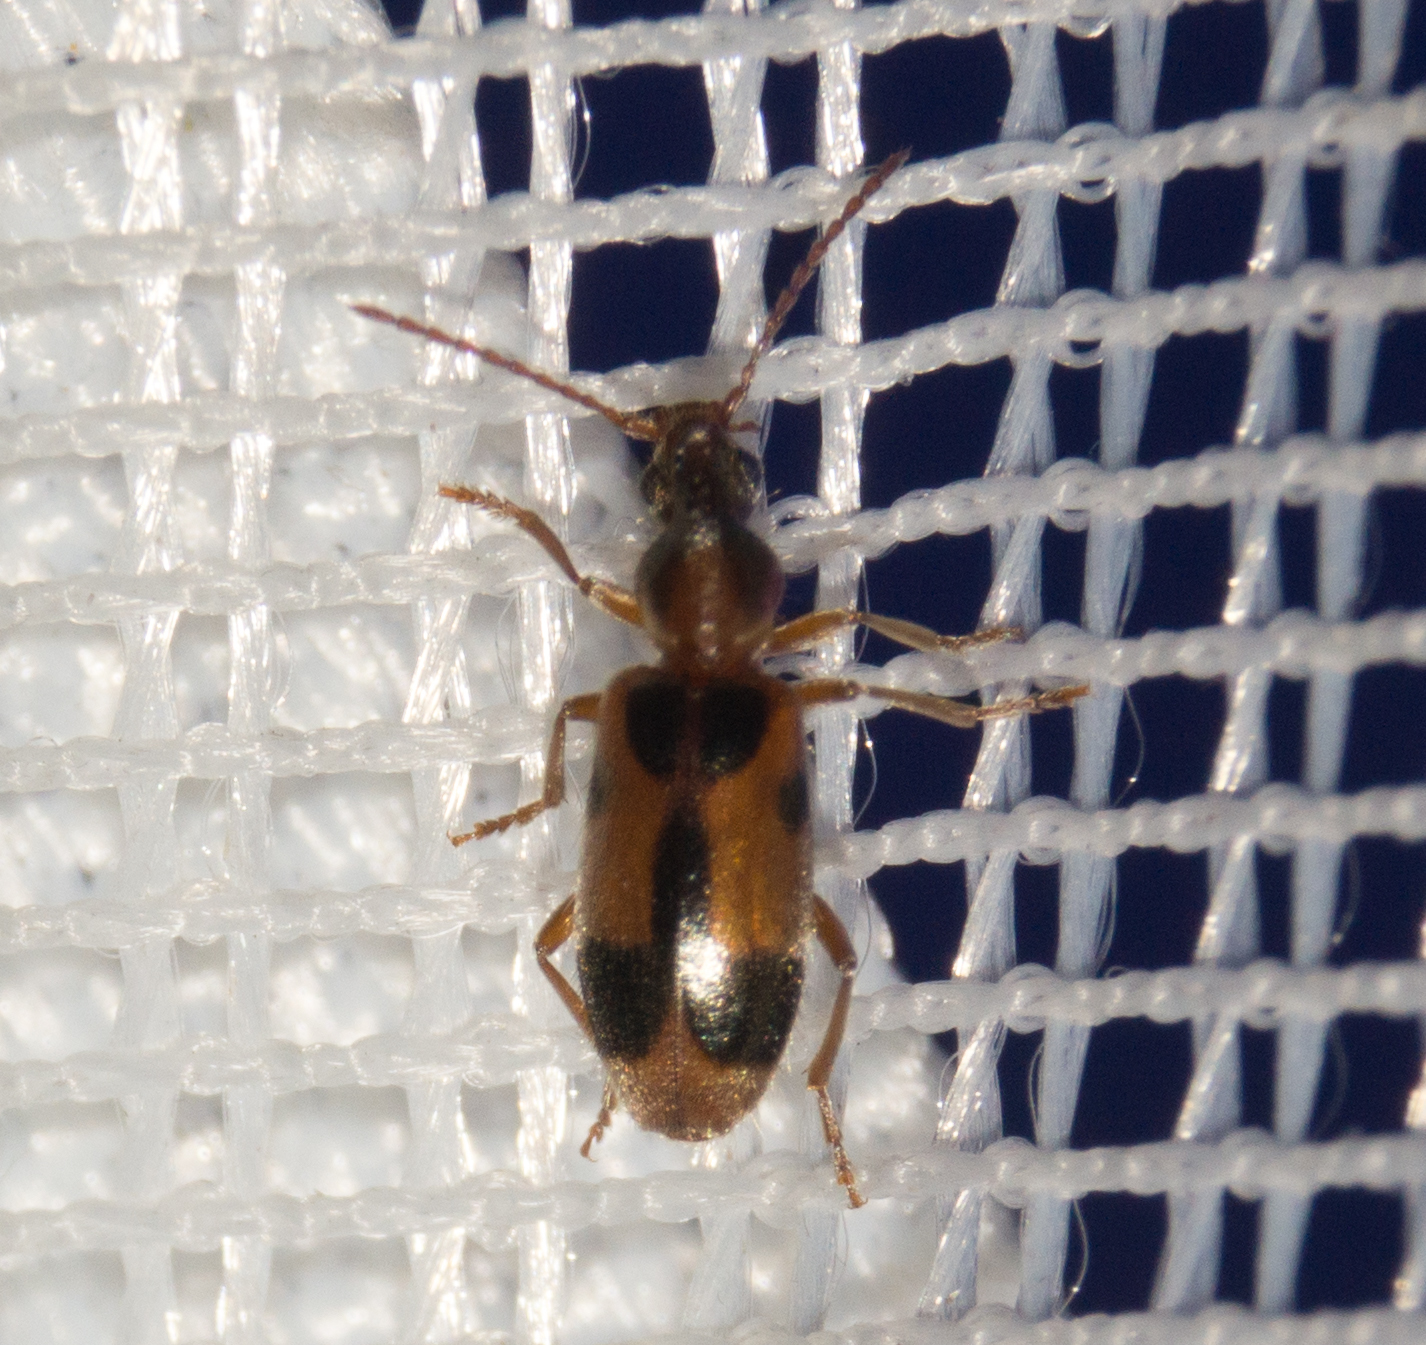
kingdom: Animalia
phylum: Arthropoda
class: Insecta
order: Coleoptera
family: Anthicidae
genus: Notoxus
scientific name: Notoxus monoceros
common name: Monoceros beetle
